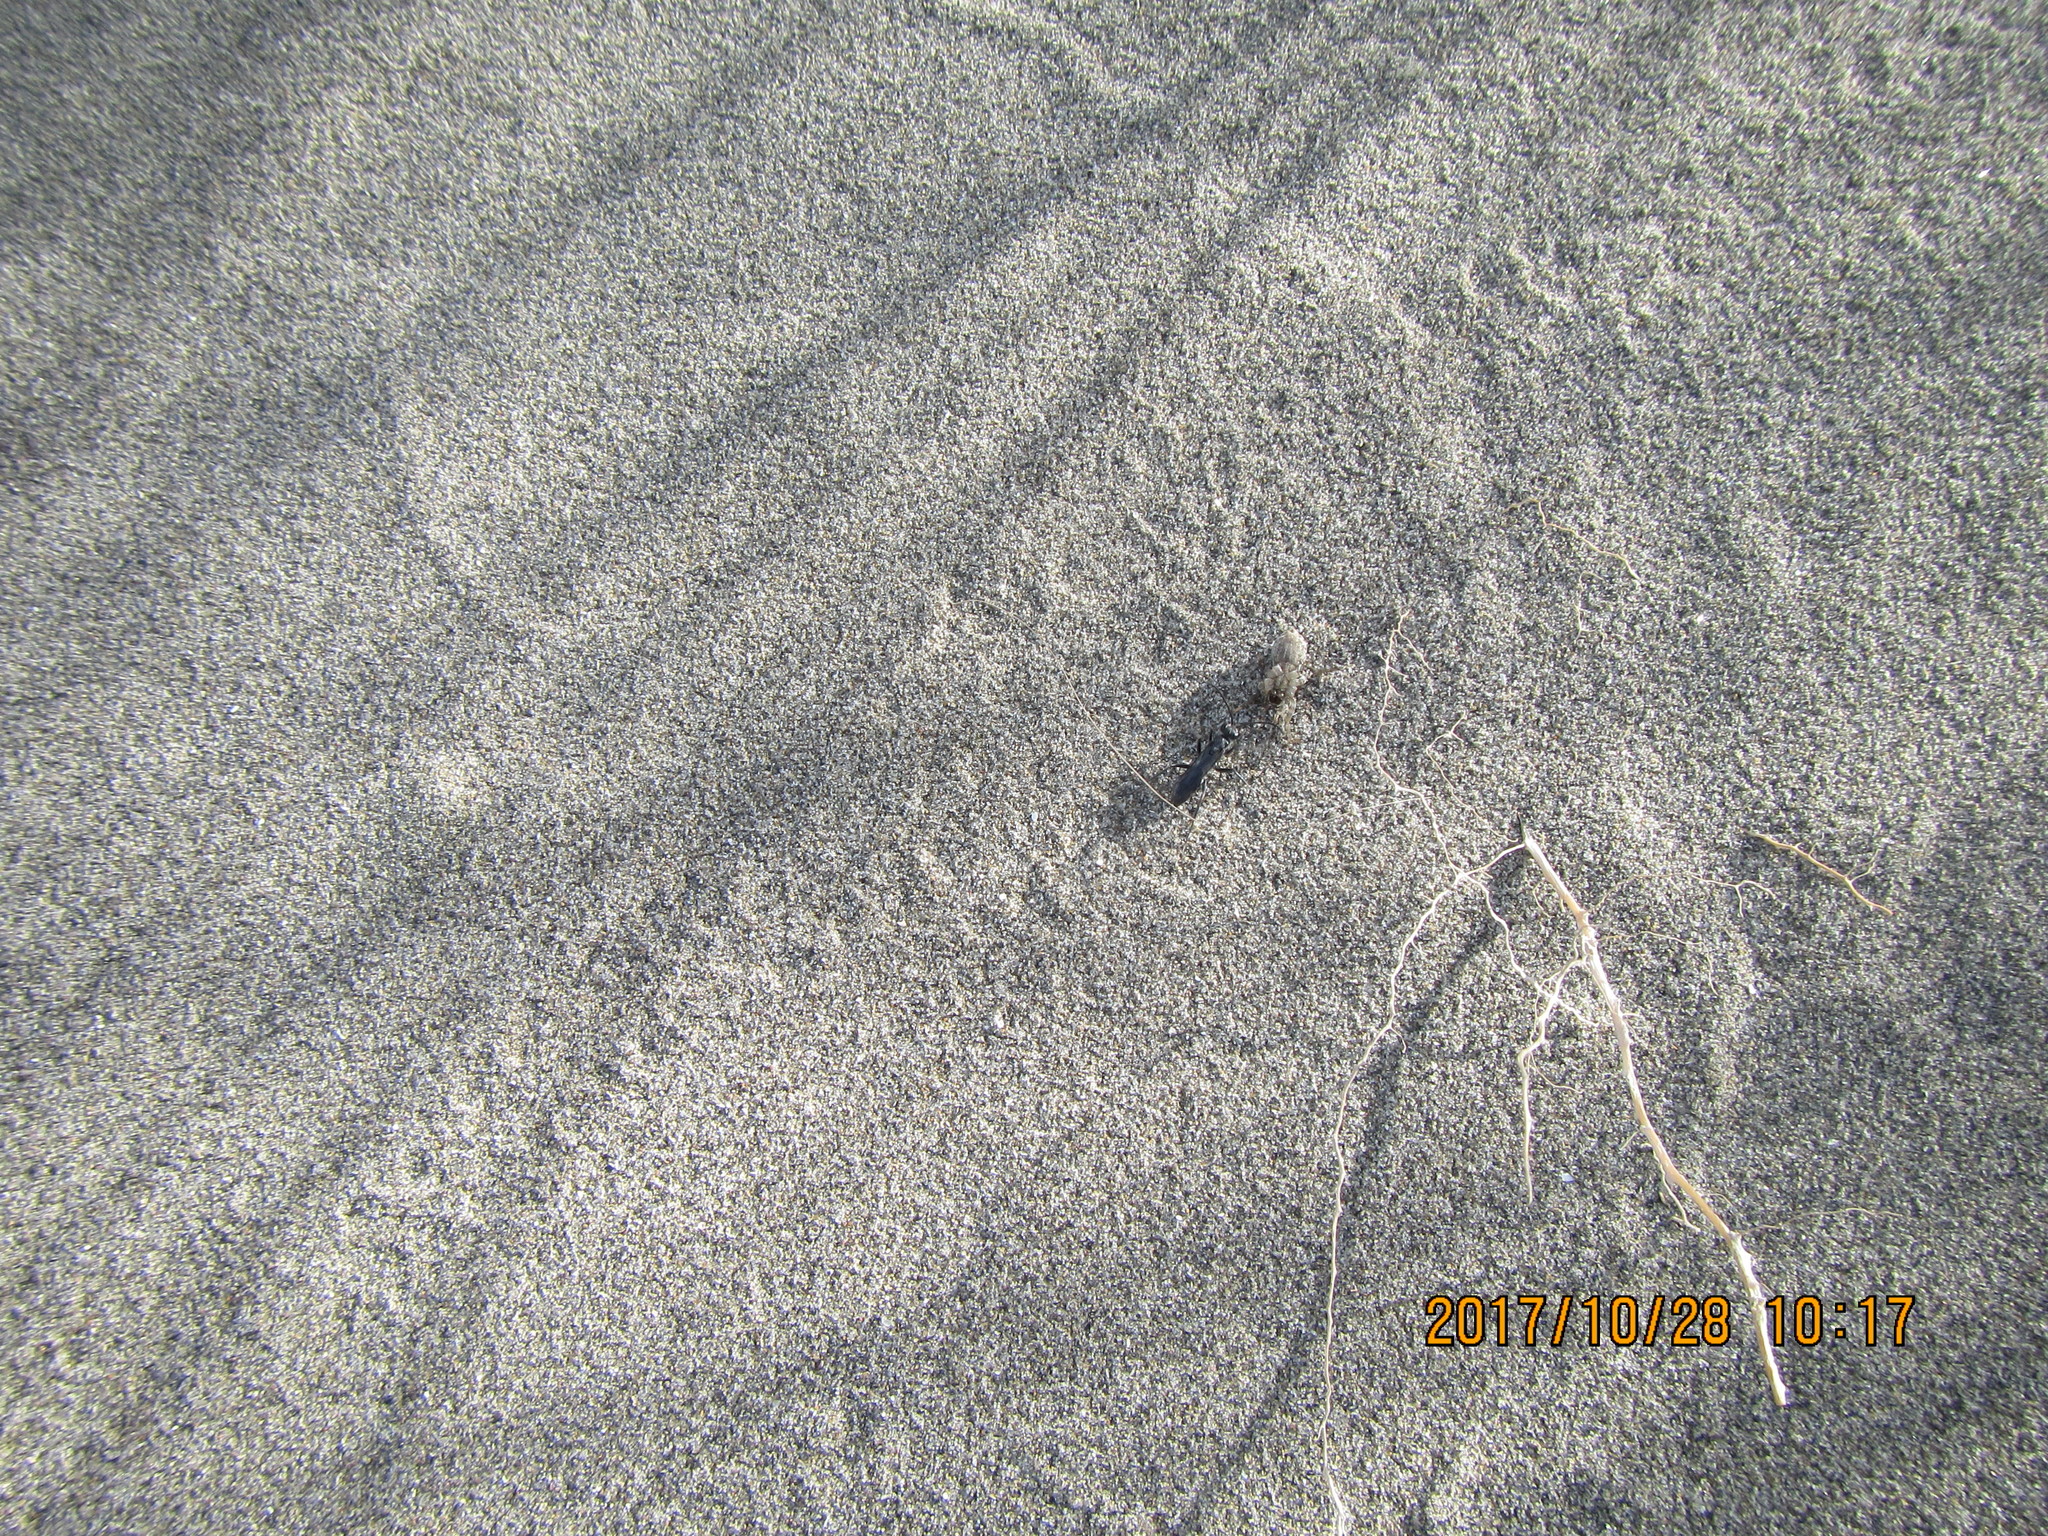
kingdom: Animalia
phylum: Arthropoda
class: Insecta
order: Hymenoptera
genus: Trichocurgus
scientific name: Trichocurgus
